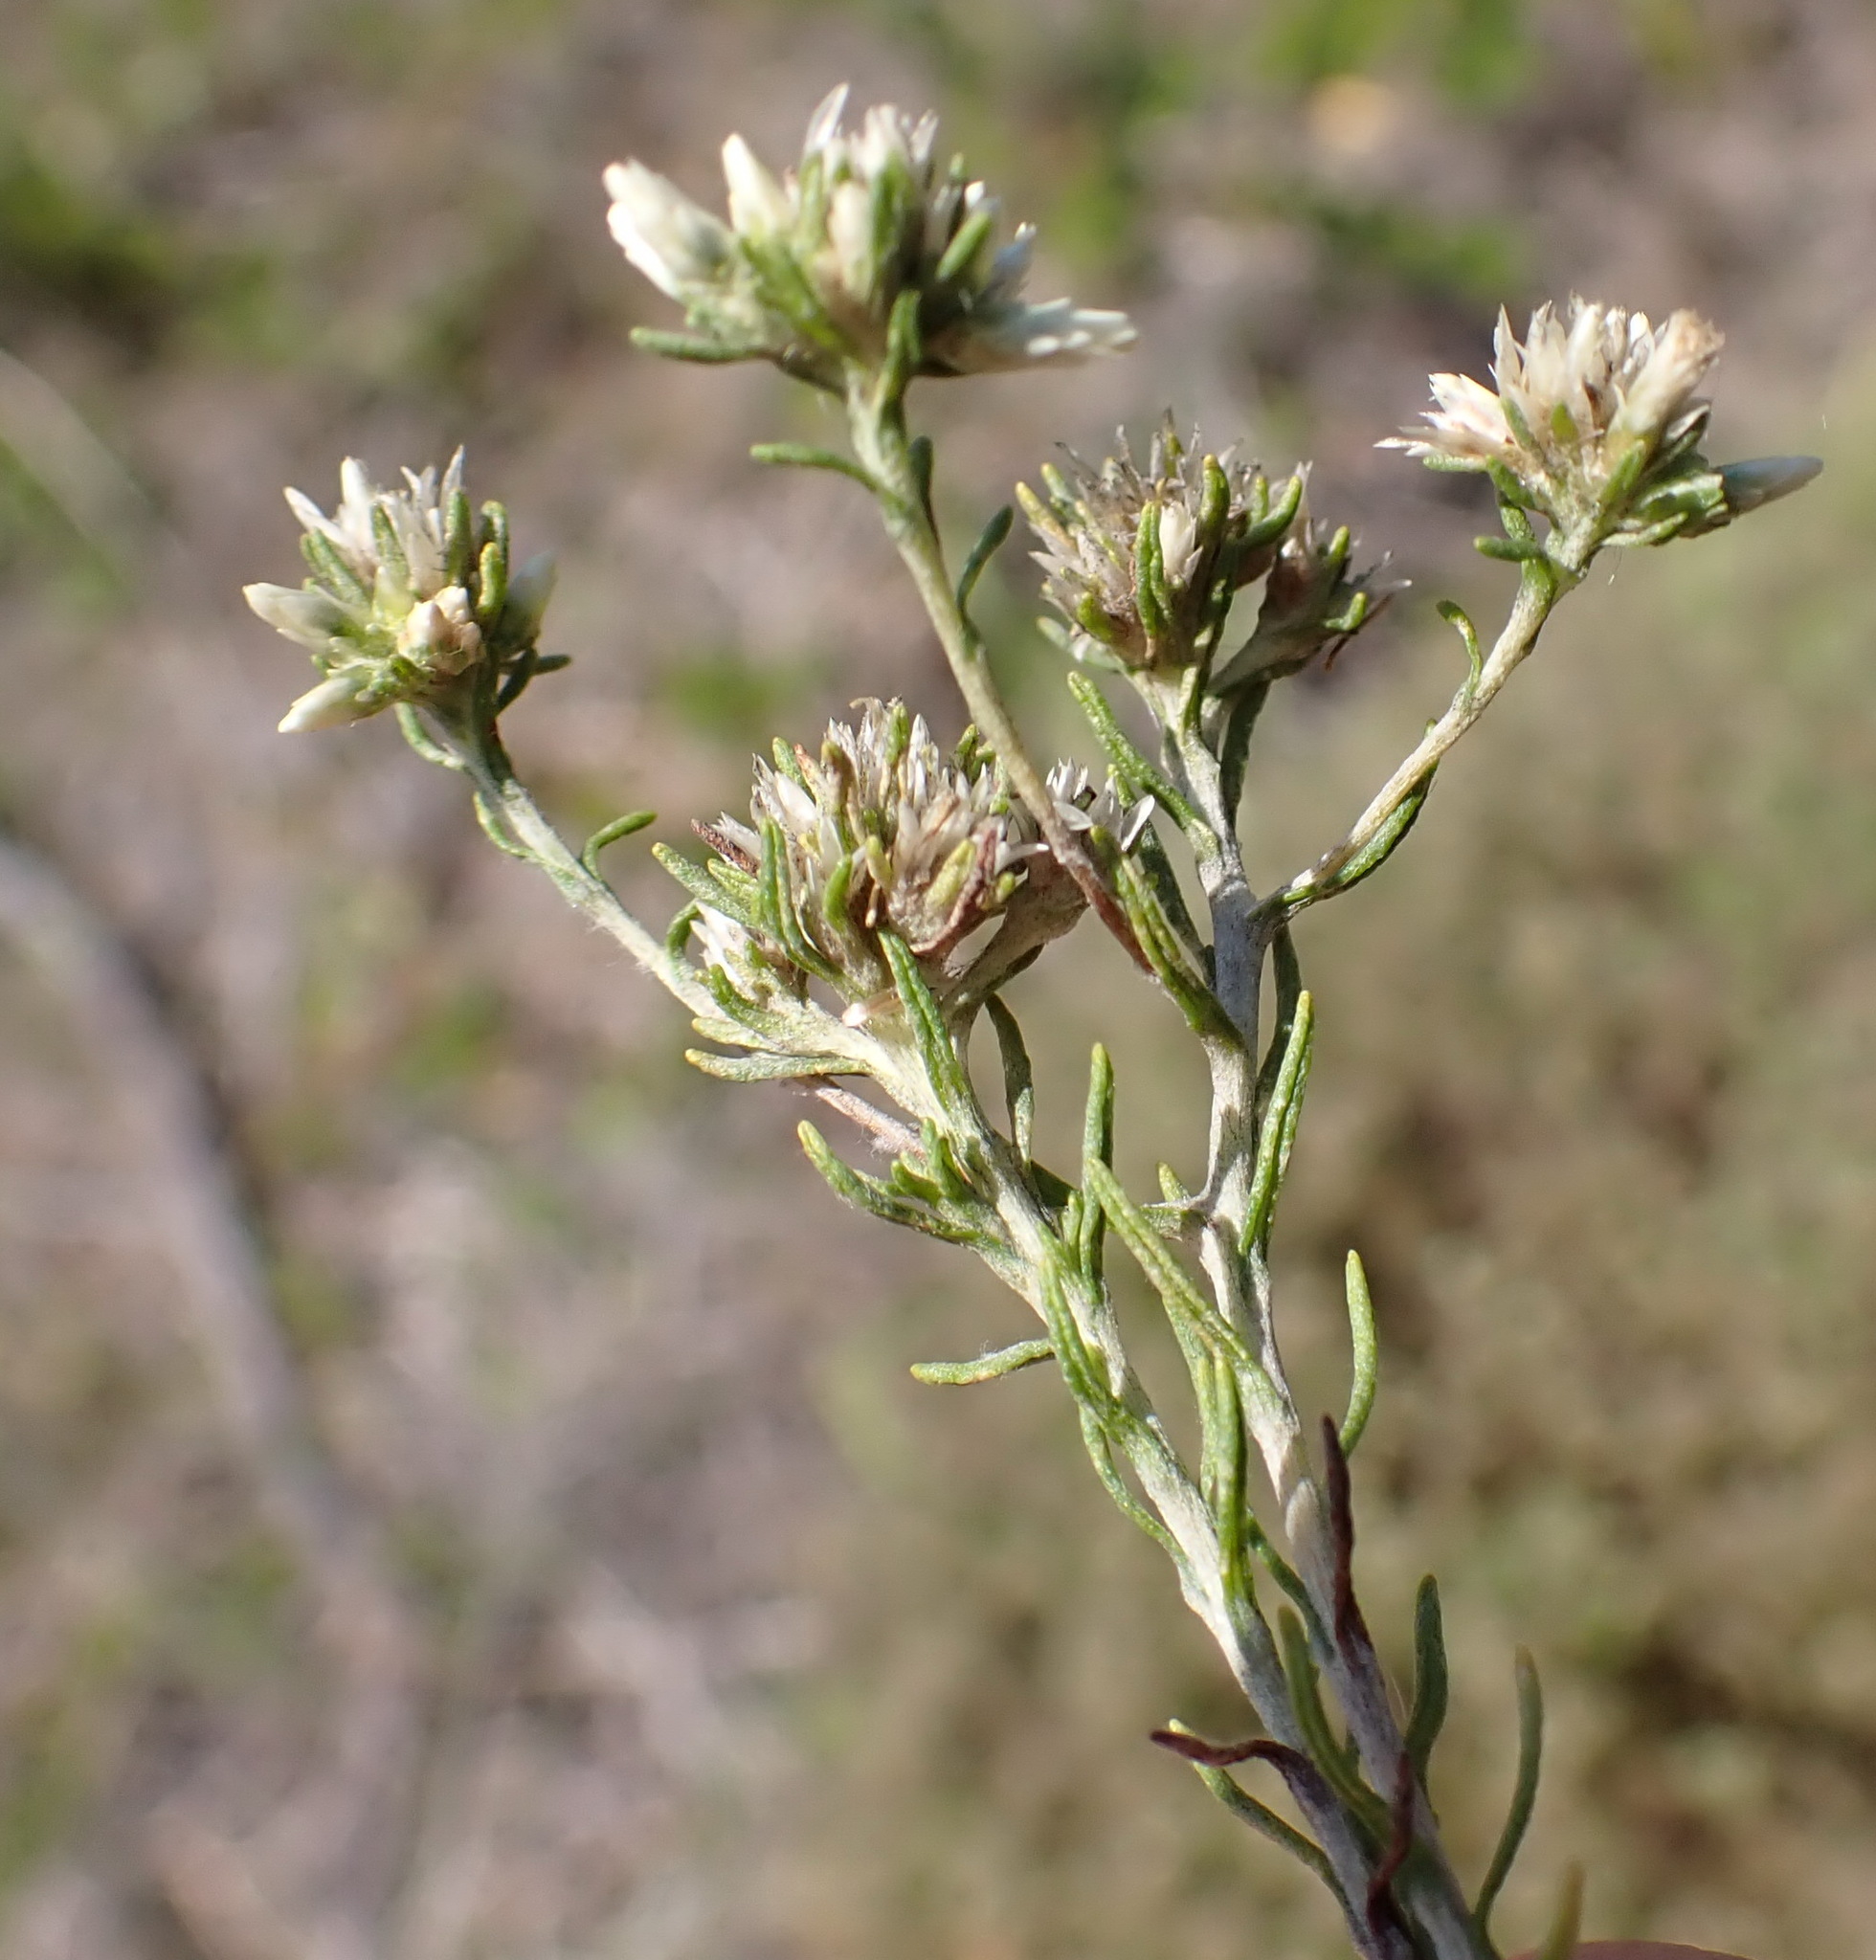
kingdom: Plantae
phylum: Tracheophyta
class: Magnoliopsida
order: Asterales
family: Asteraceae
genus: Helichrysum
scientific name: Helichrysum niveum
